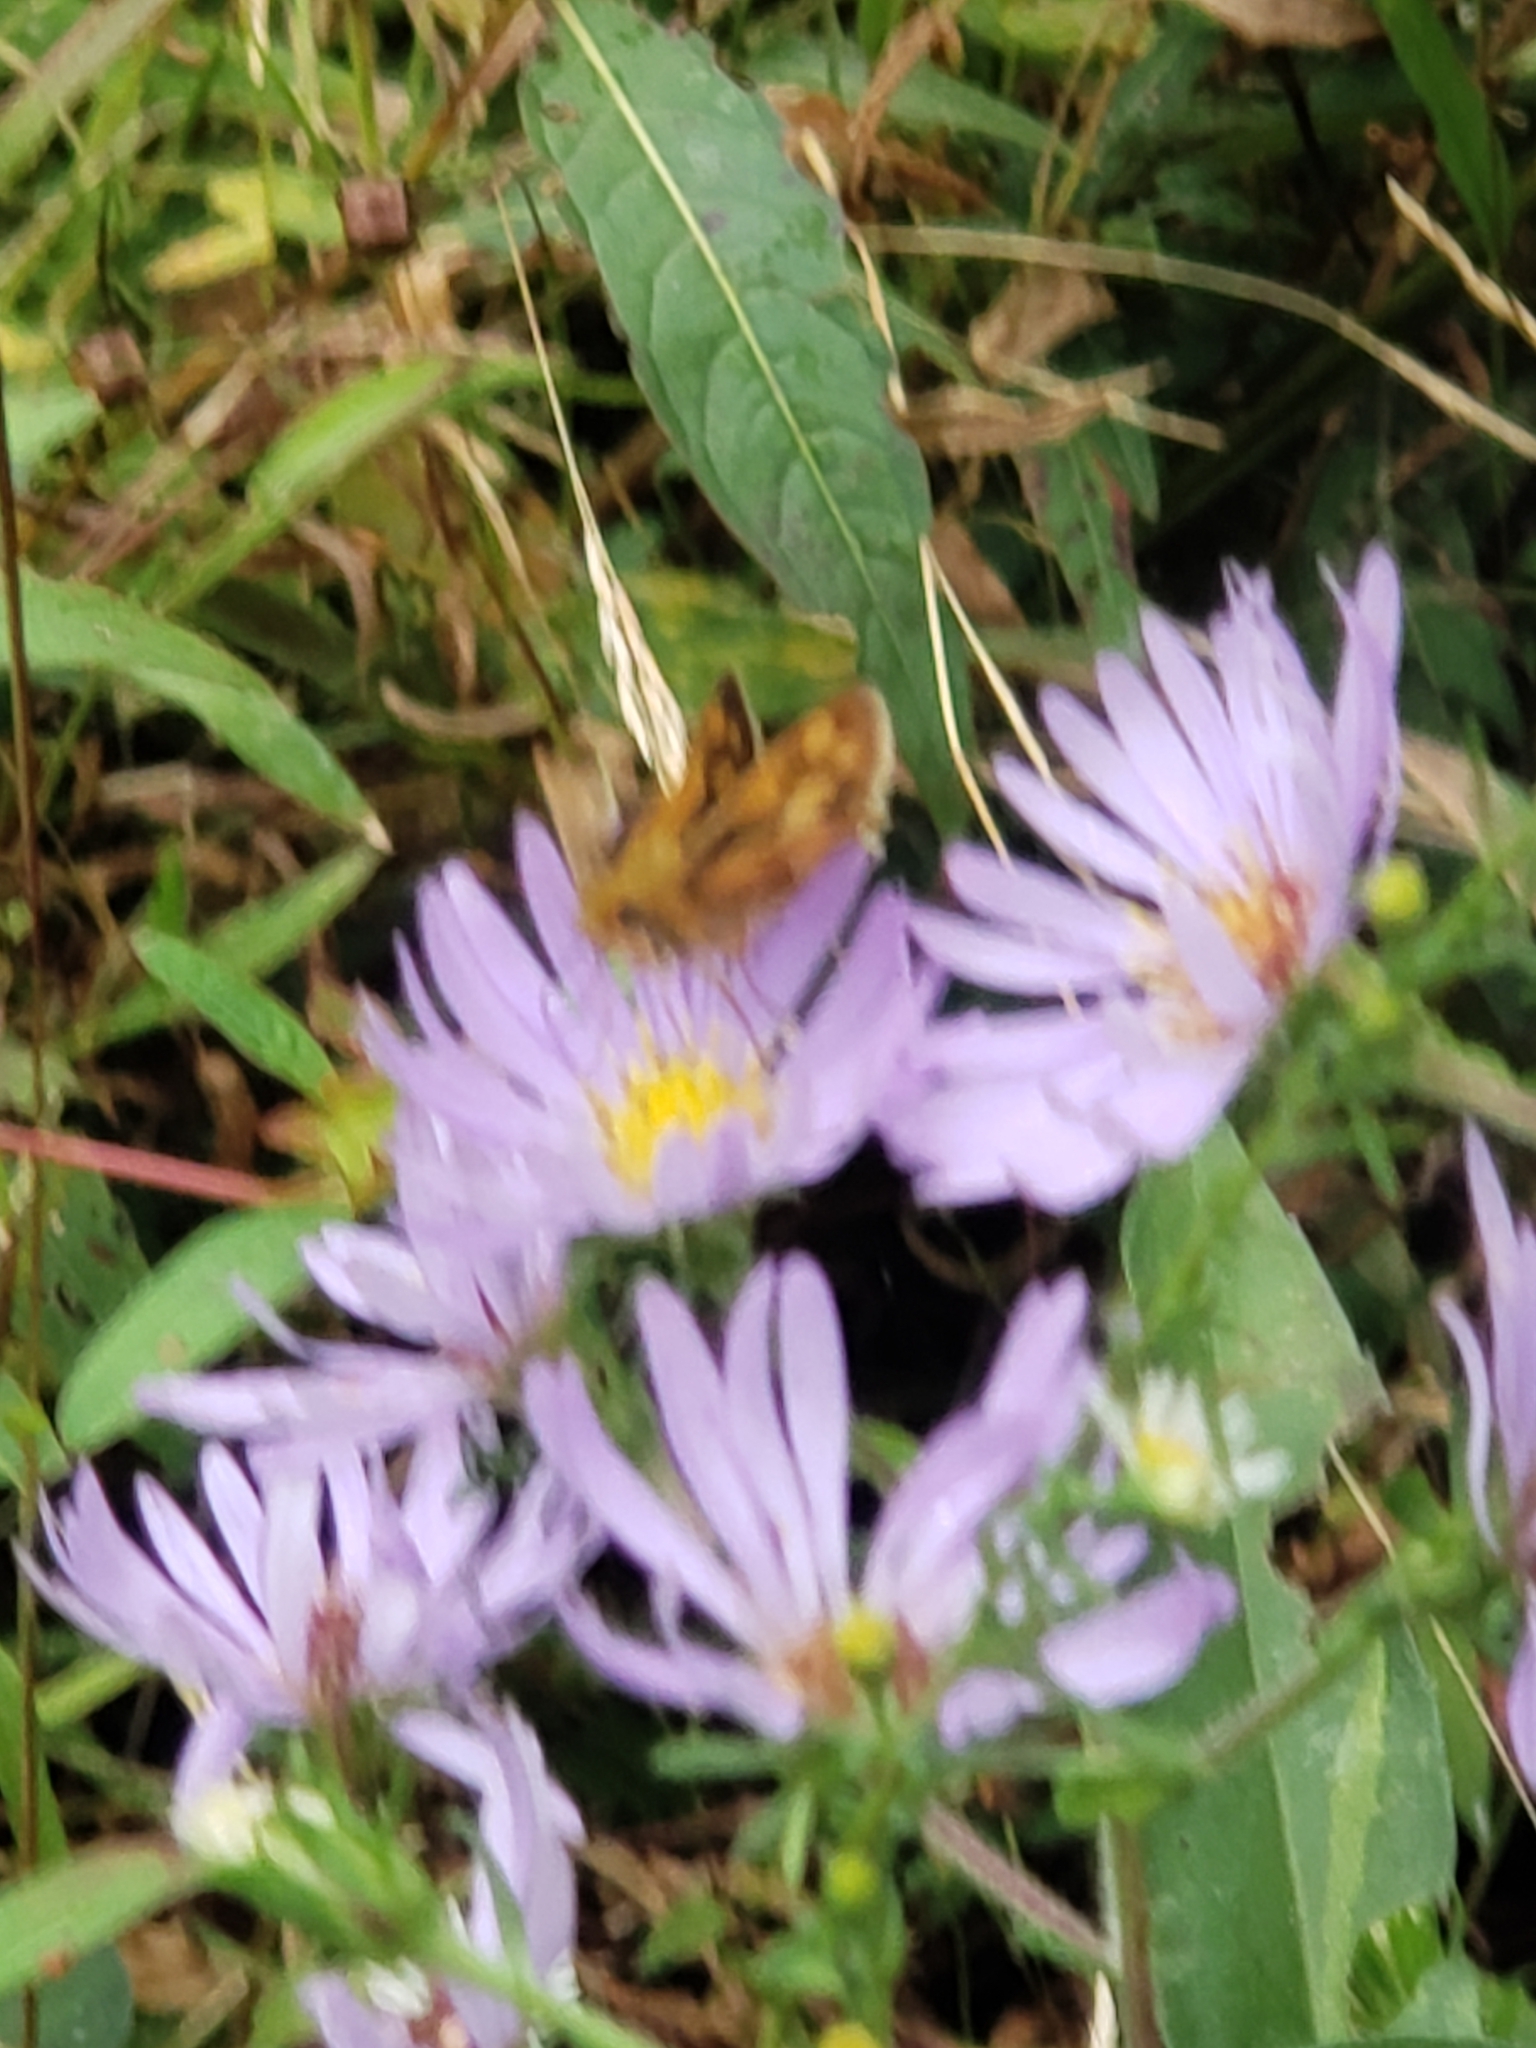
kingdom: Animalia
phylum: Arthropoda
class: Insecta
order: Lepidoptera
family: Hesperiidae
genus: Polites
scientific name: Polites coras
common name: Peck's skipper
